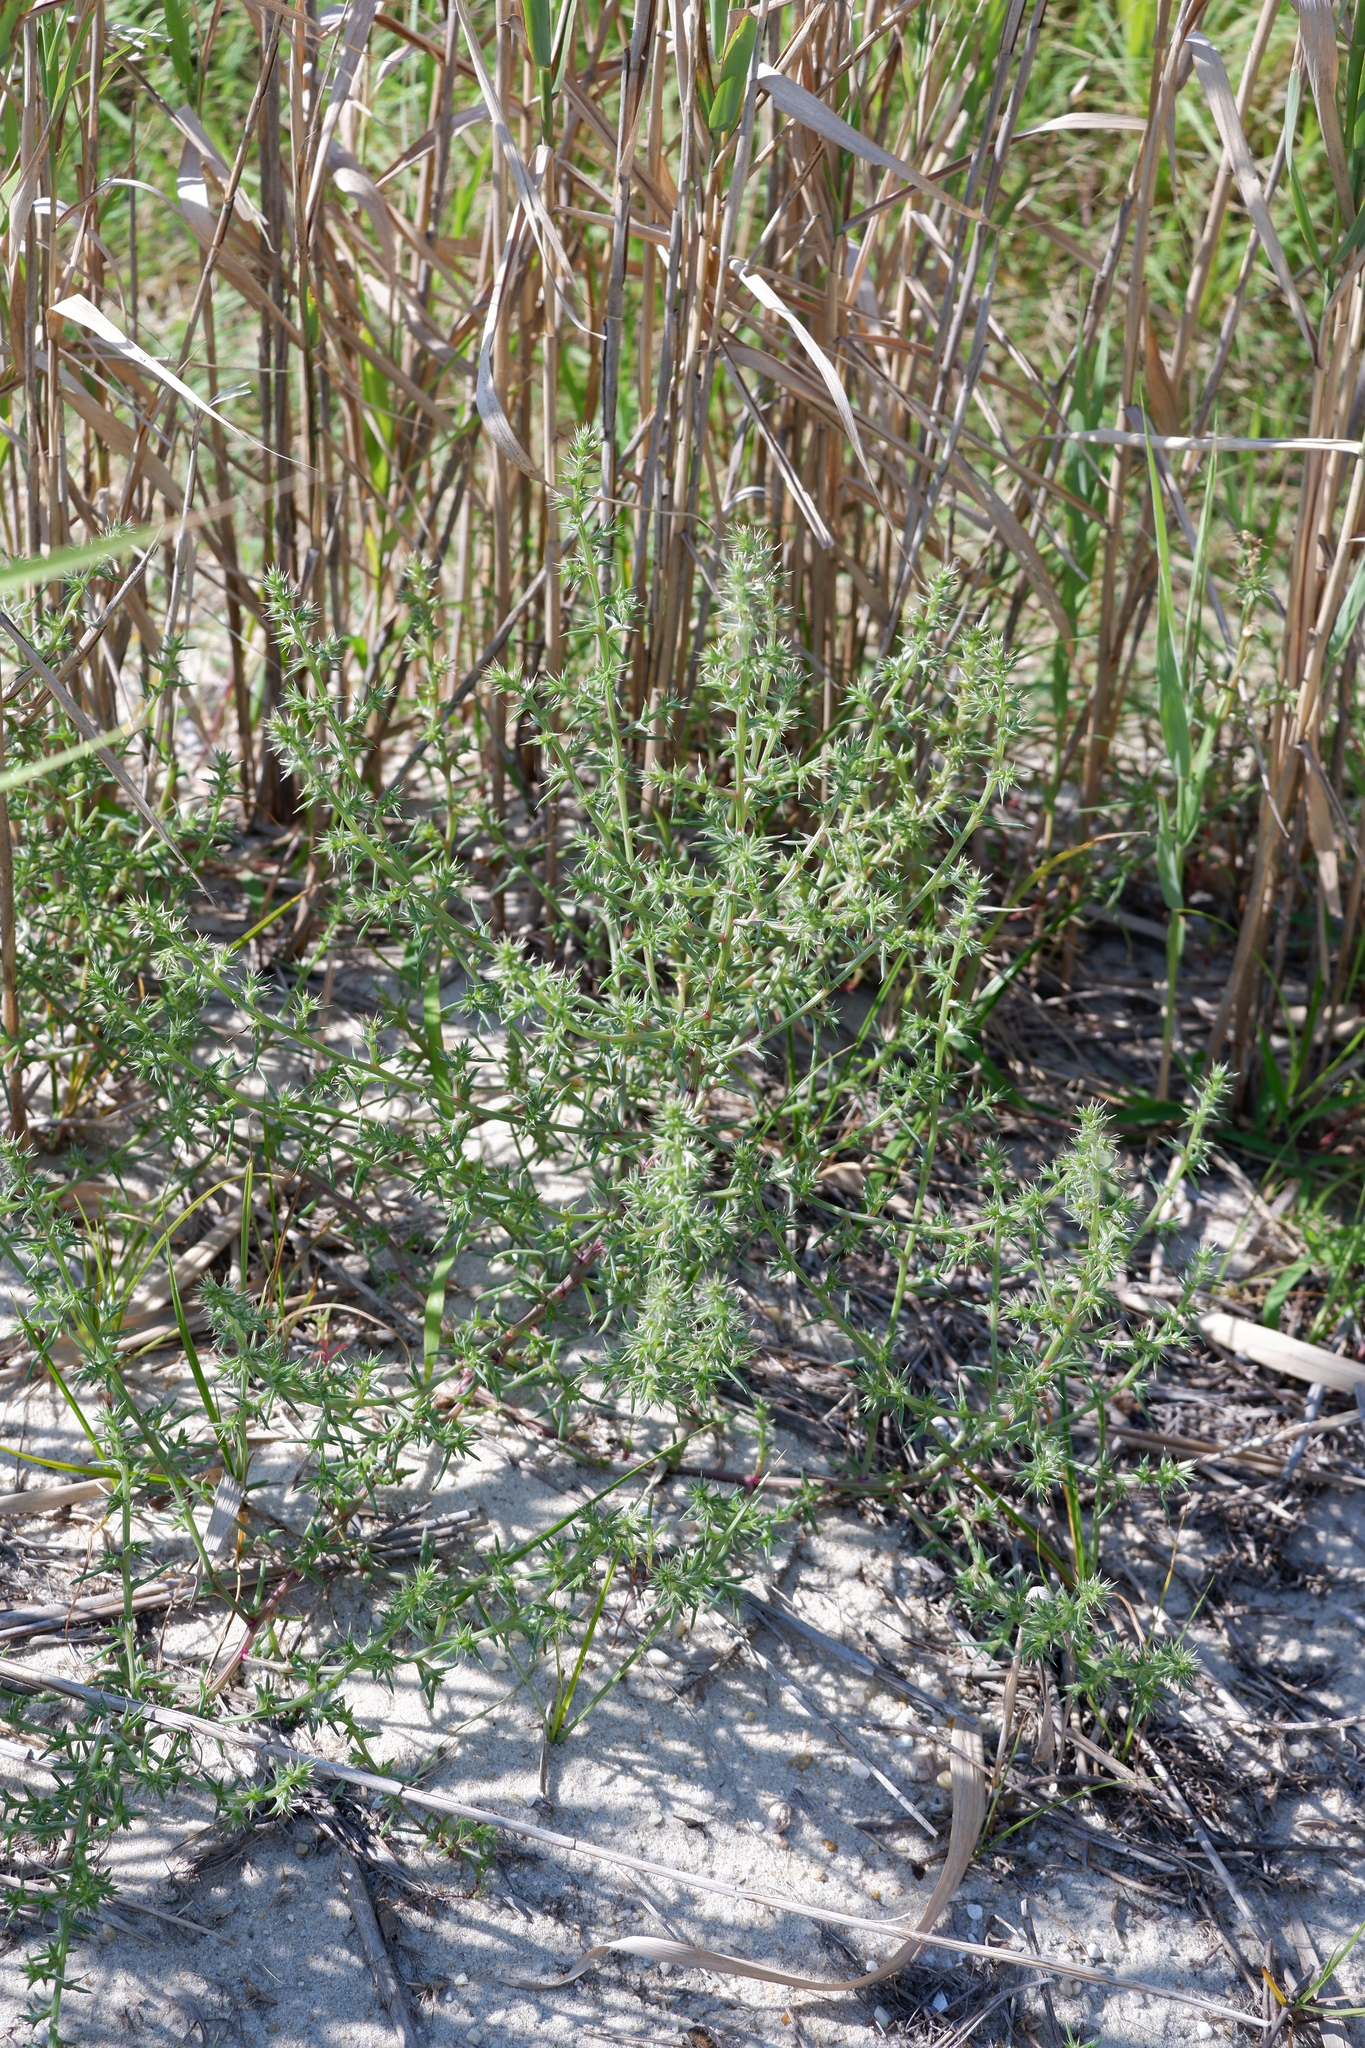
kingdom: Plantae
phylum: Tracheophyta
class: Magnoliopsida
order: Caryophyllales
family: Amaranthaceae
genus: Salsola
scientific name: Salsola kali
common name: Saltwort
